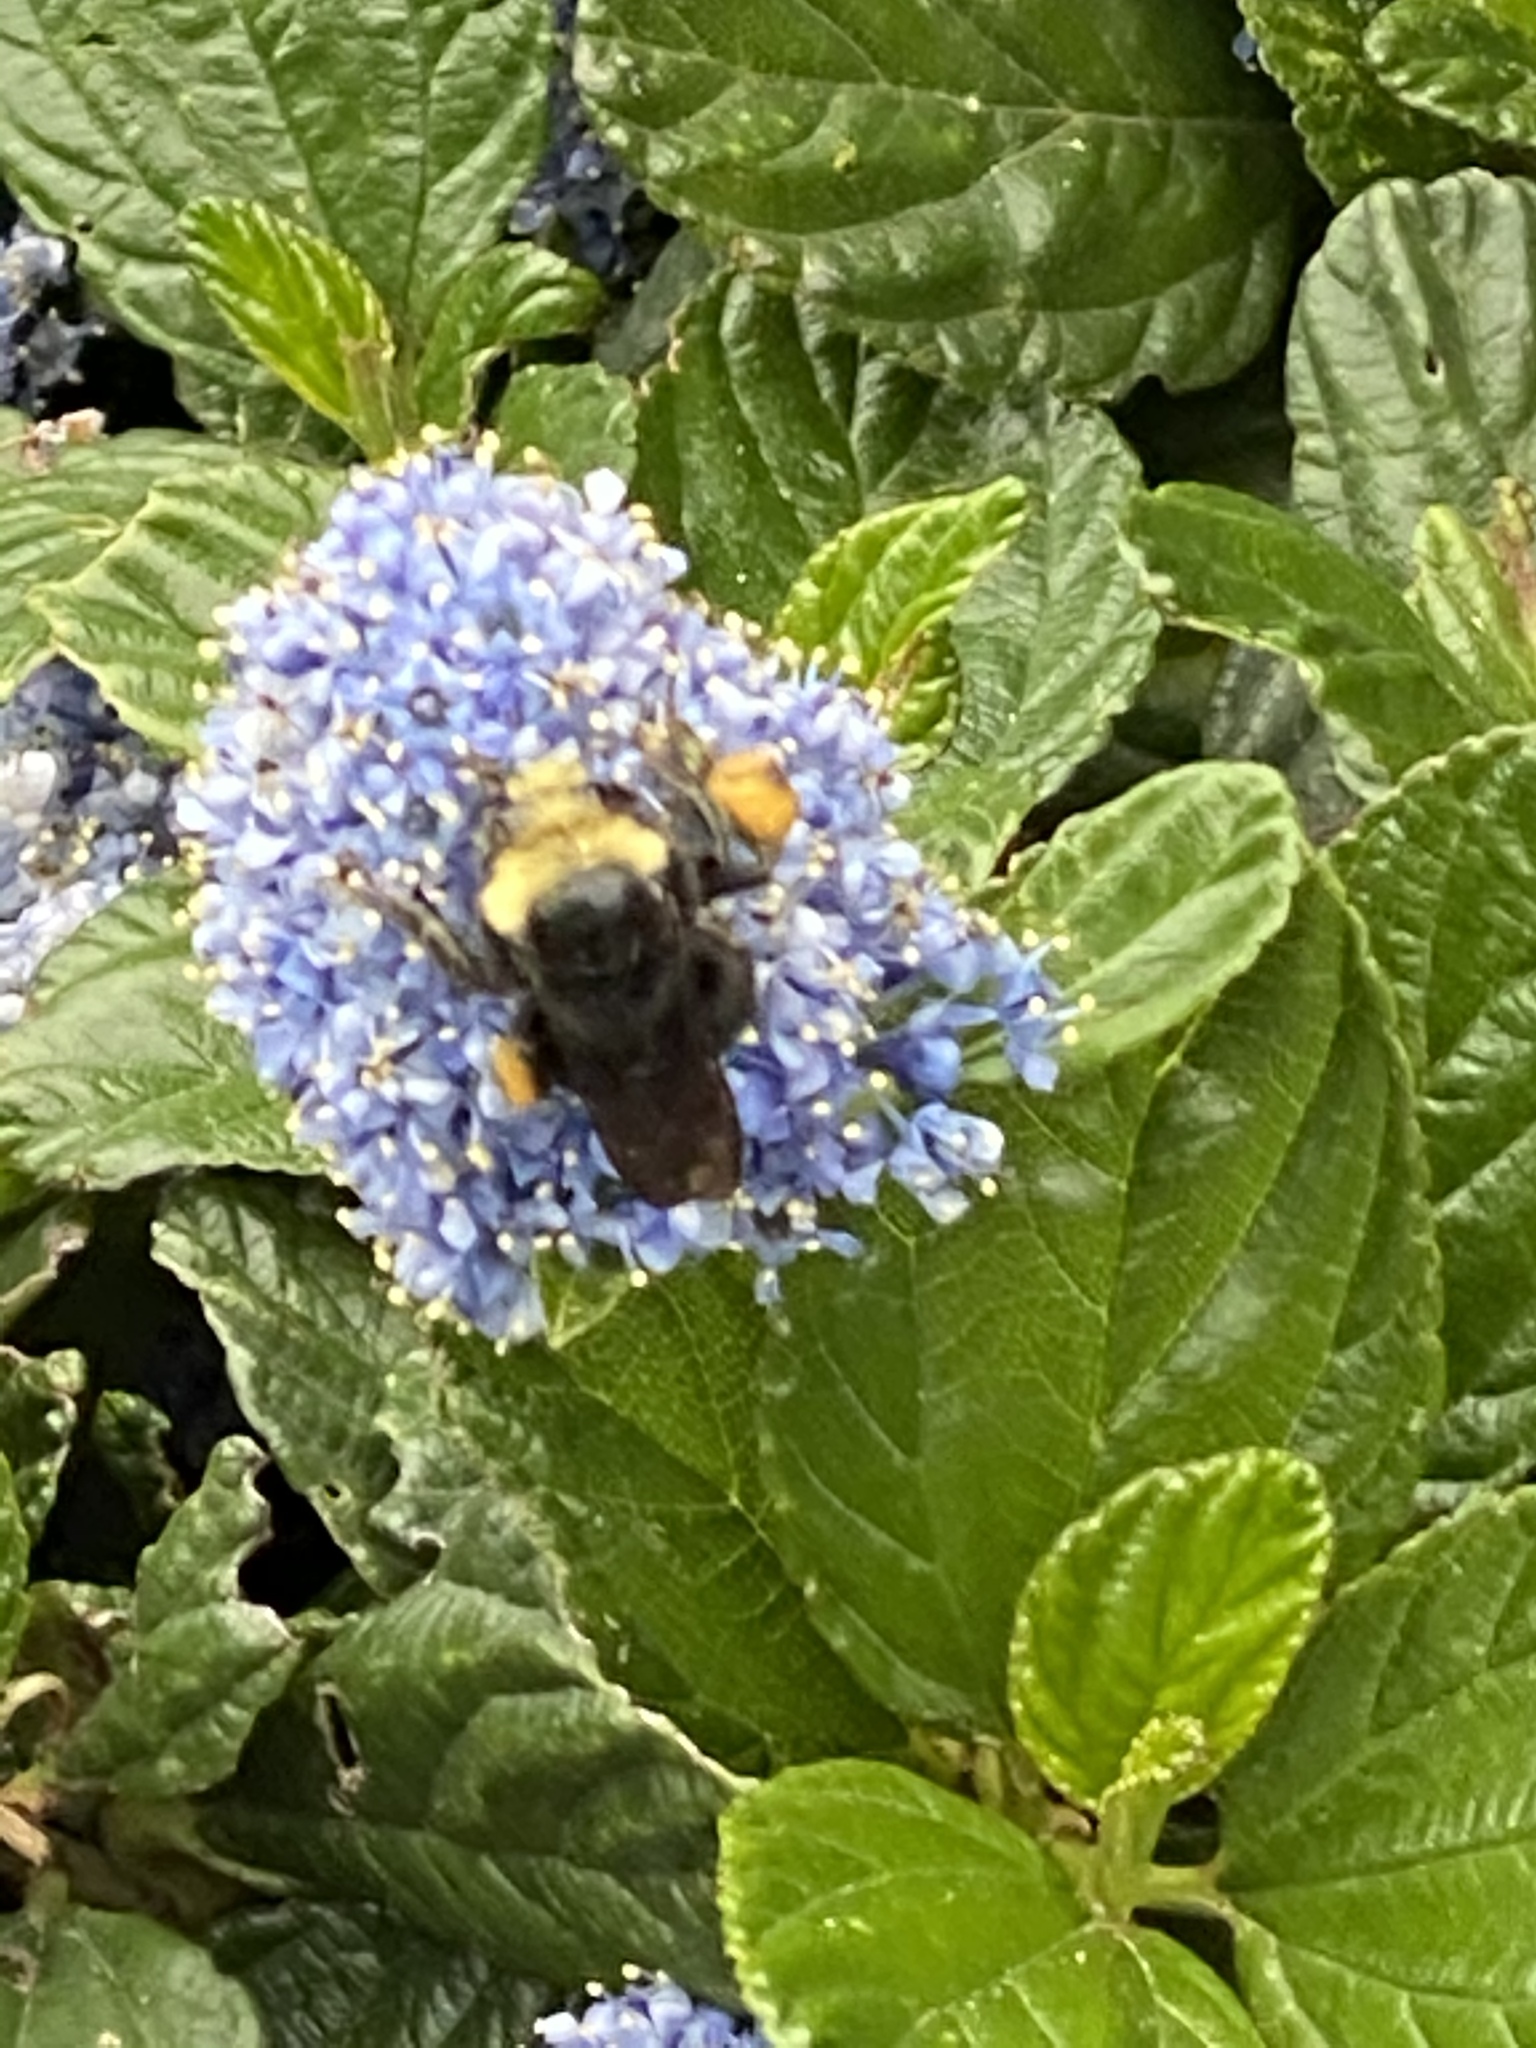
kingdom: Animalia
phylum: Arthropoda
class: Insecta
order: Hymenoptera
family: Apidae
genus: Bombus
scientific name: Bombus vosnesenskii
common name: Vosnesensky bumble bee
